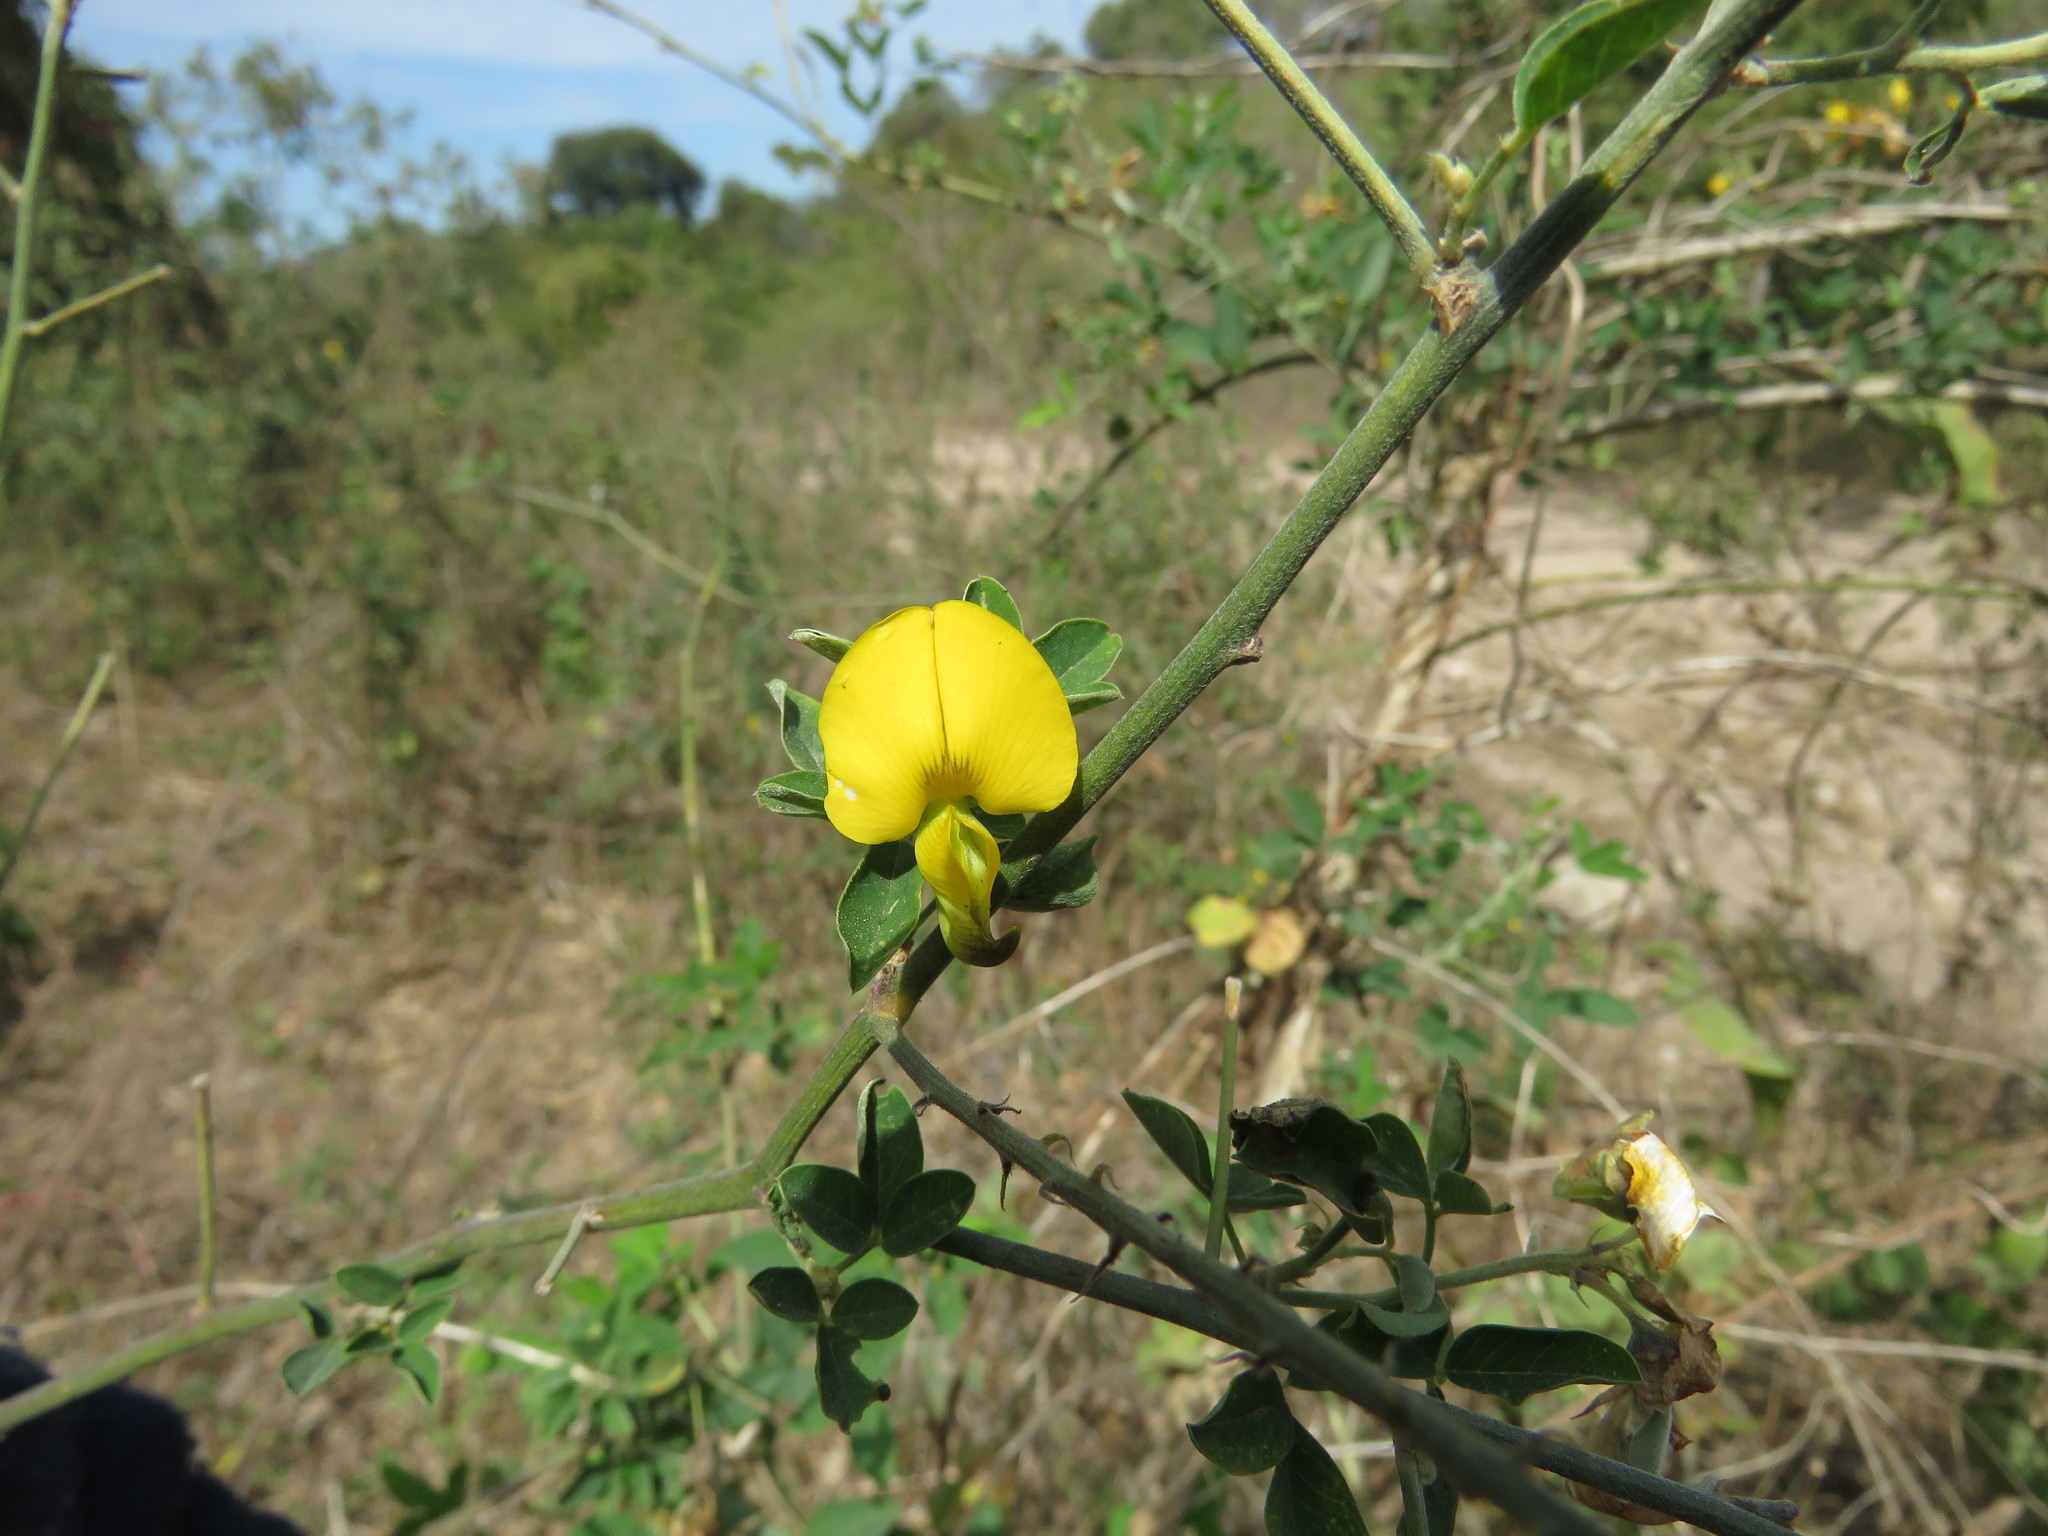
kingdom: Plantae
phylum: Tracheophyta
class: Magnoliopsida
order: Fabales
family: Fabaceae
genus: Crotalaria
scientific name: Crotalaria incana
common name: Shakeshake
